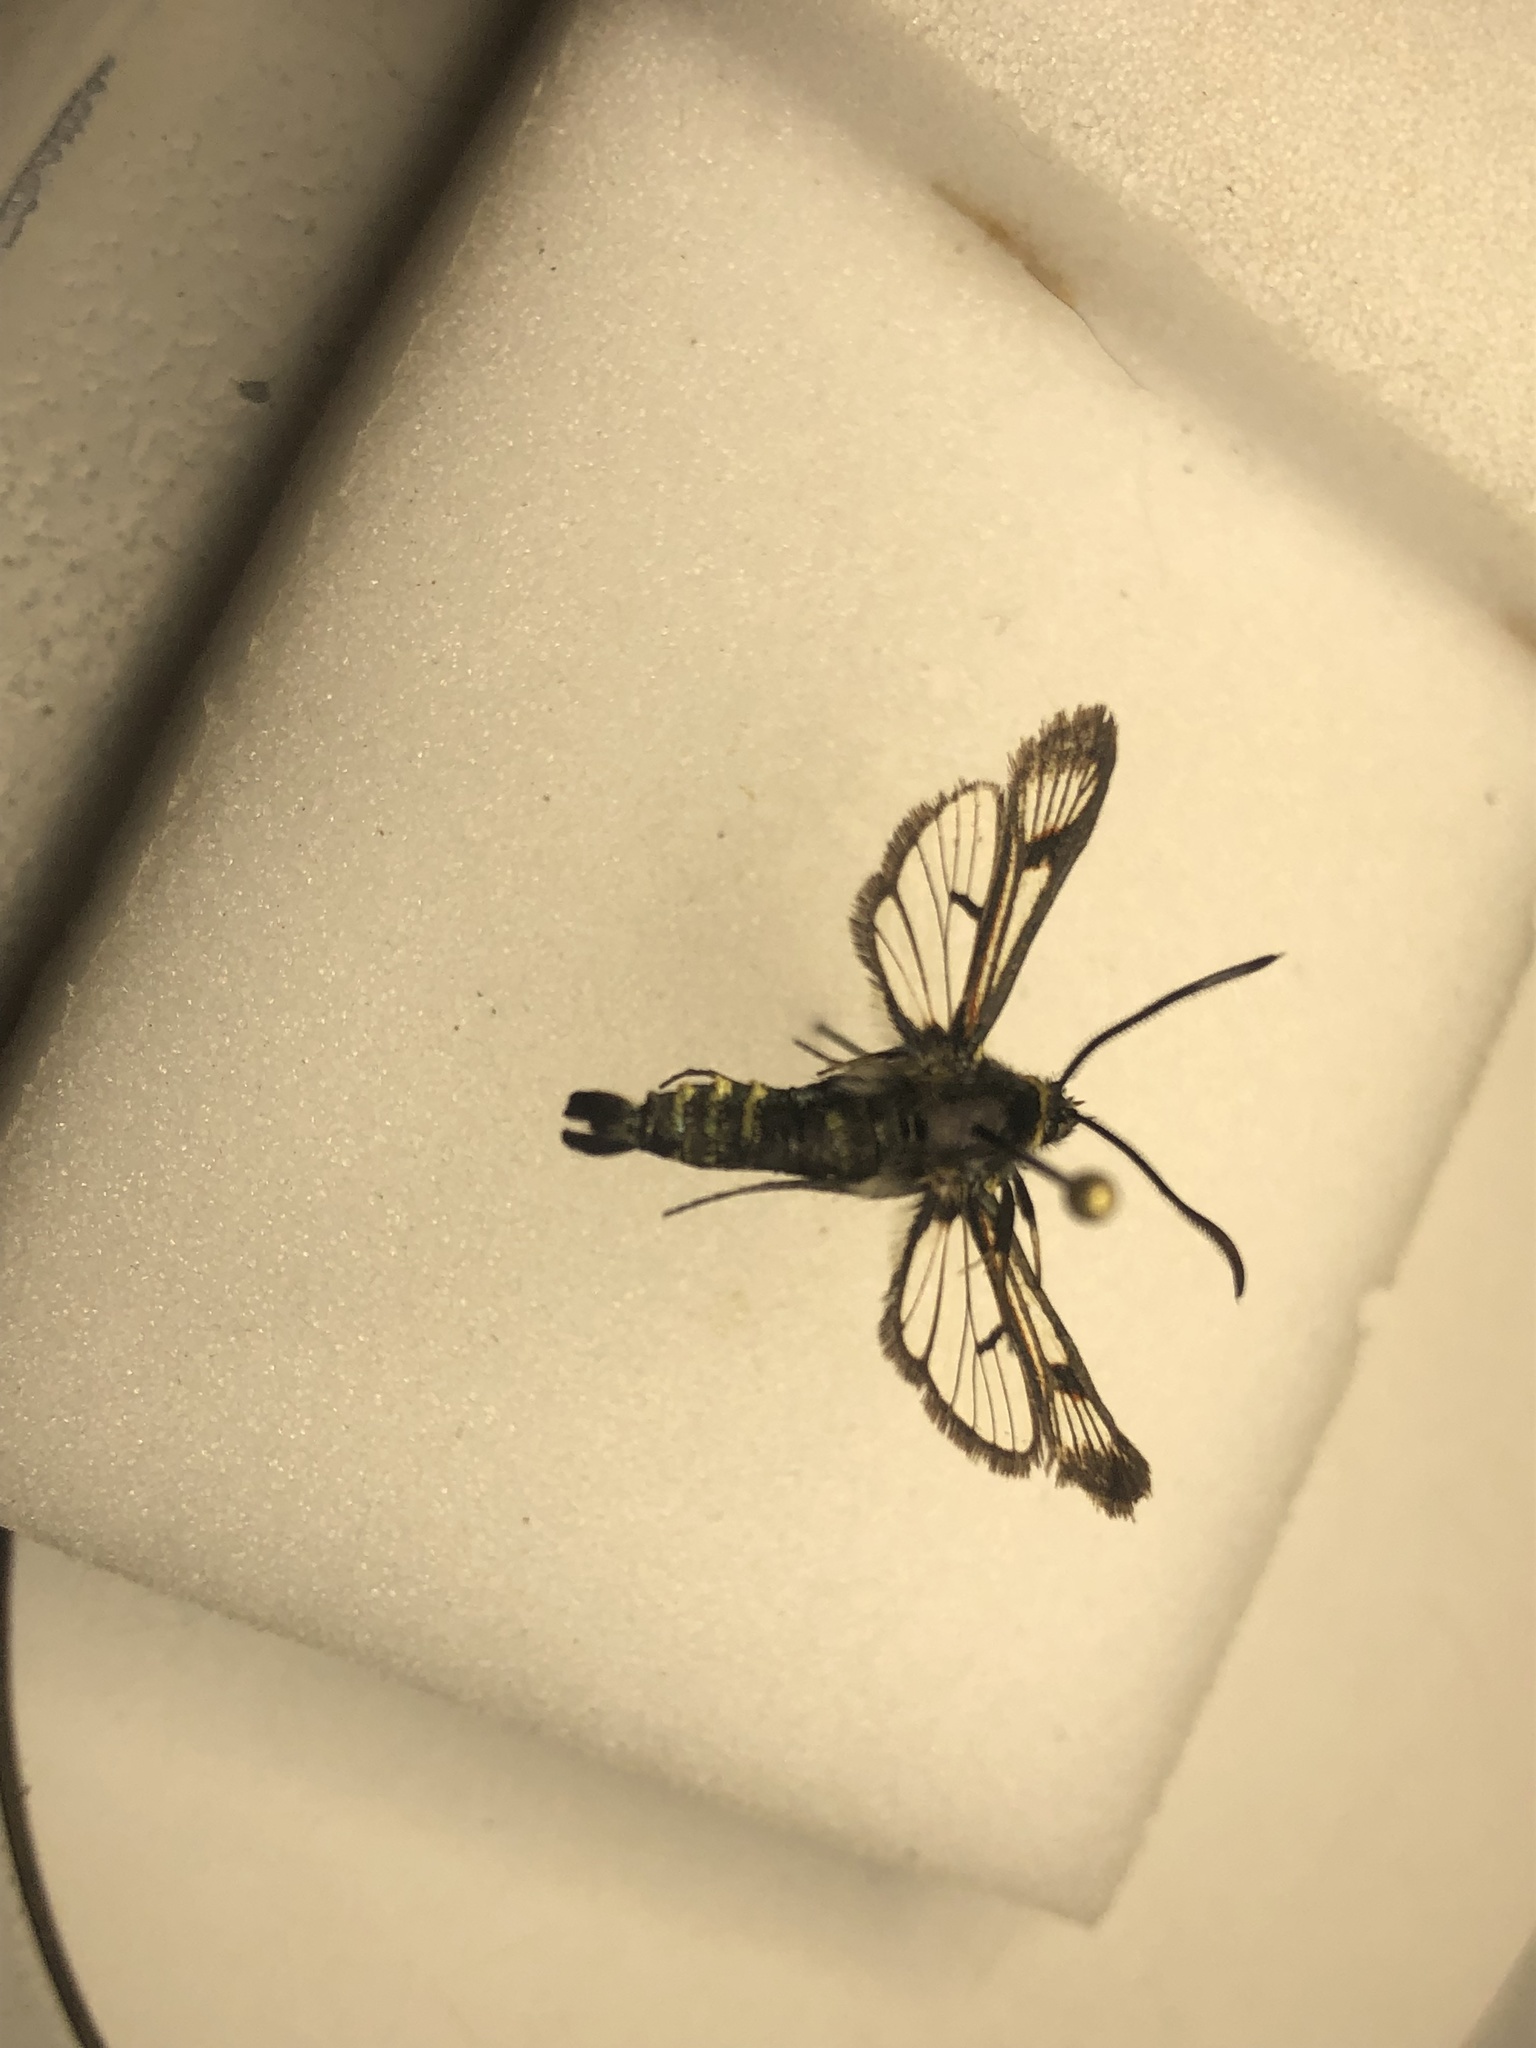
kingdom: Animalia
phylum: Arthropoda
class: Insecta
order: Lepidoptera
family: Sesiidae
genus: Albuna
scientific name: Albuna pyramidalis
